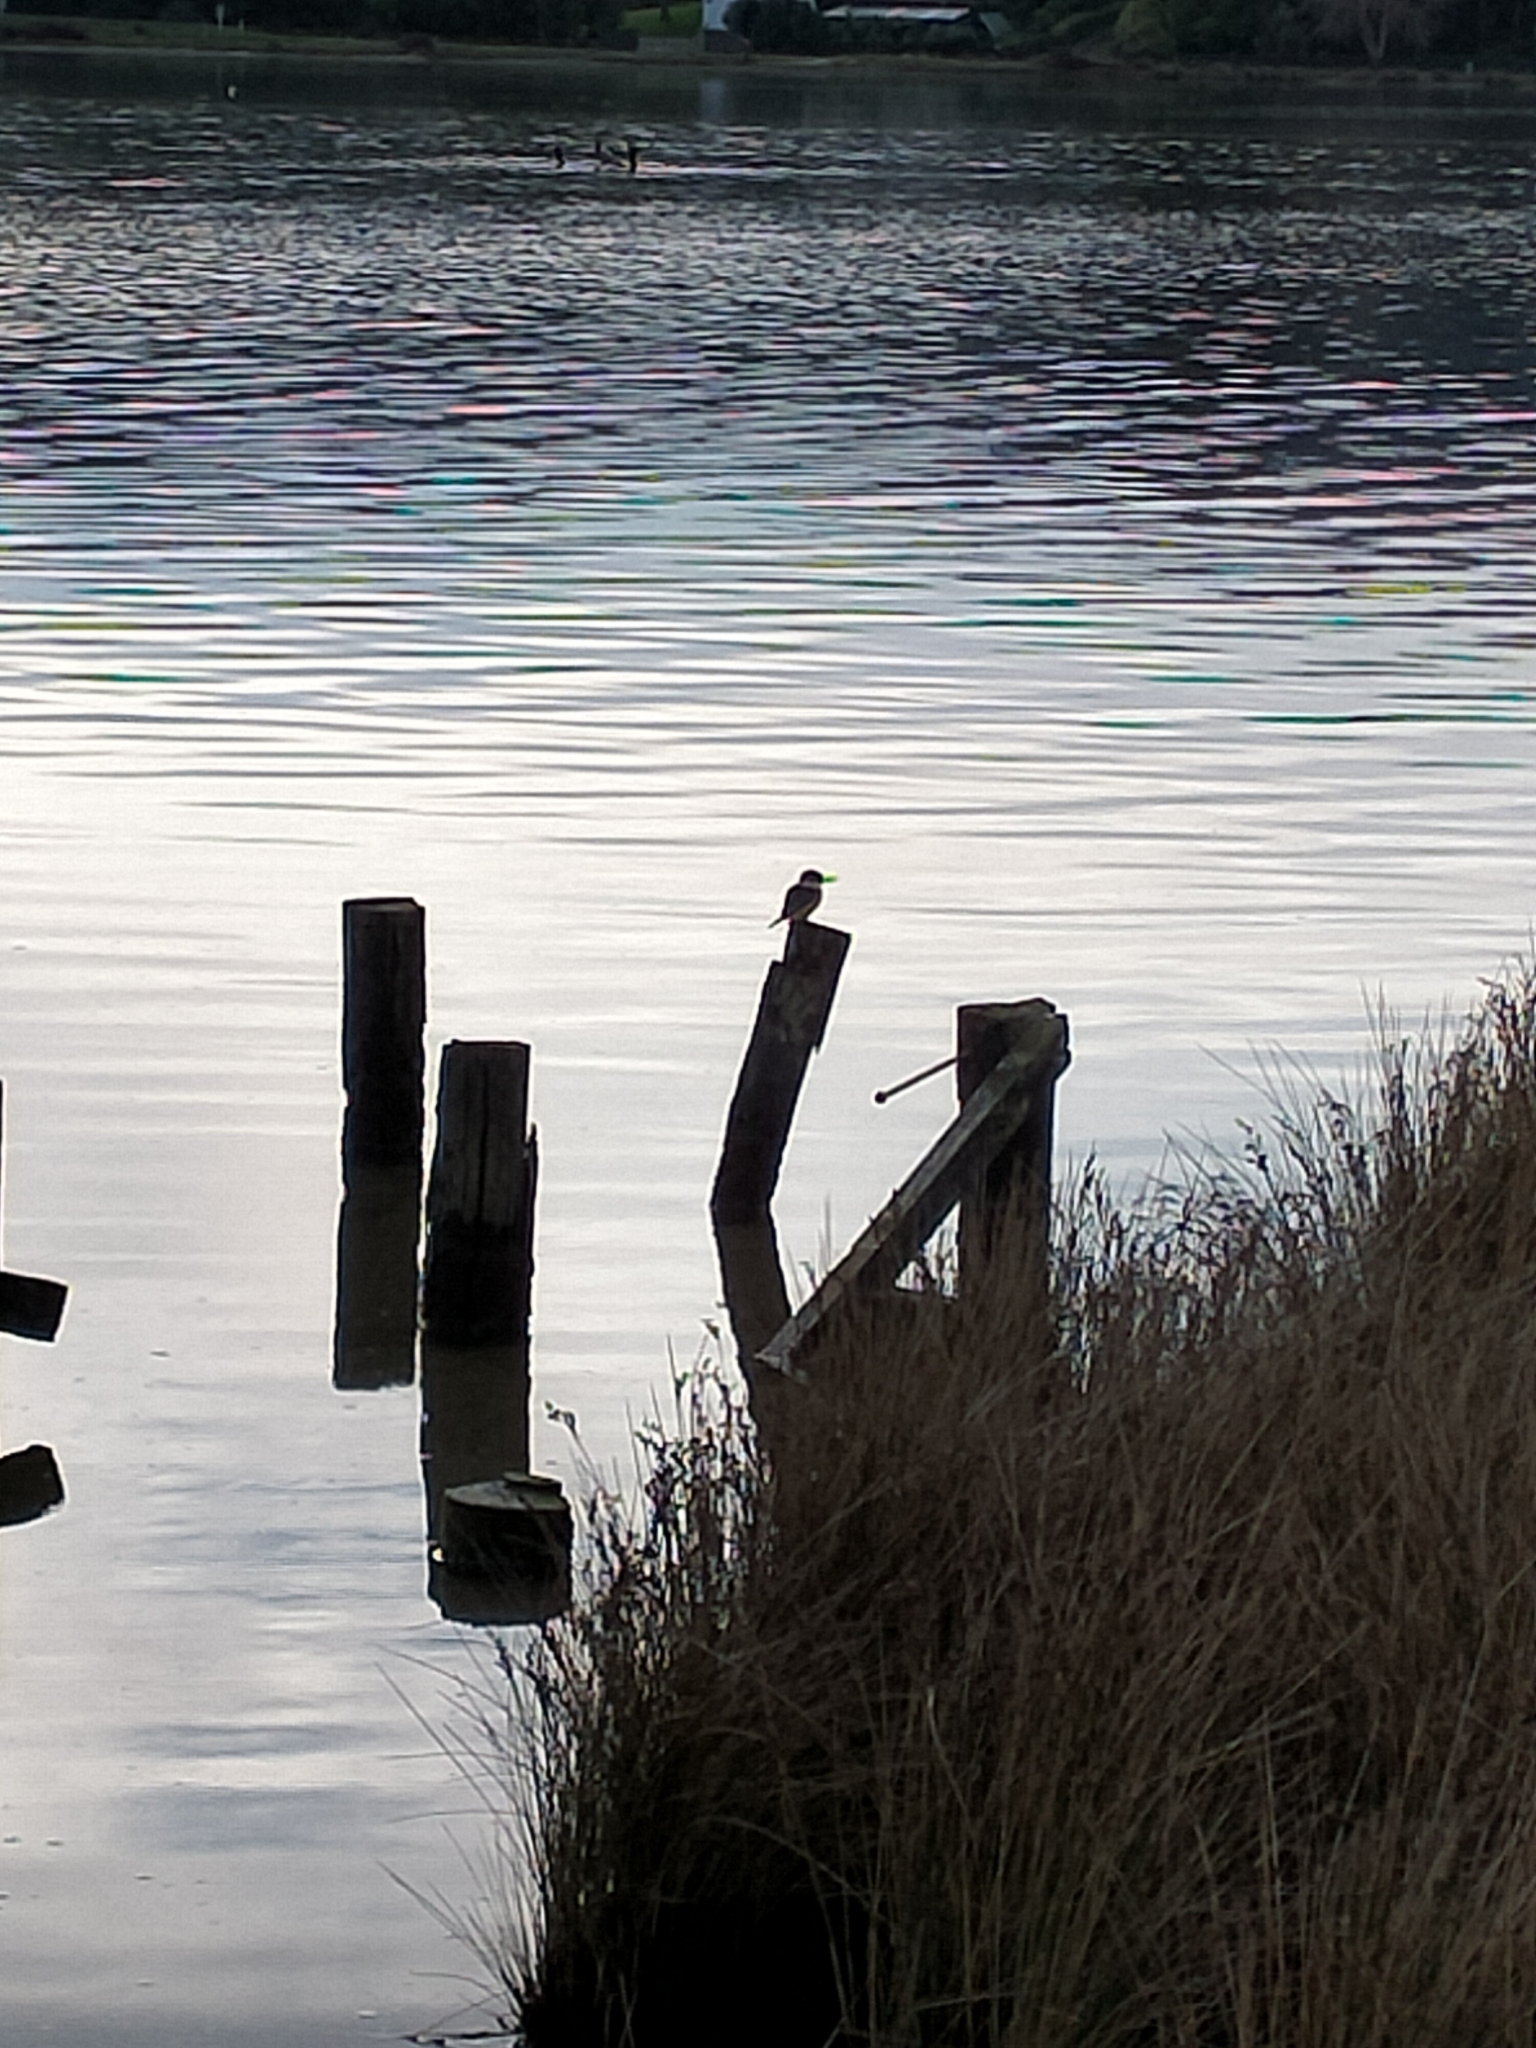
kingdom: Animalia
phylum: Chordata
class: Aves
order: Coraciiformes
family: Alcedinidae
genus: Todiramphus
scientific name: Todiramphus sanctus
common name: Sacred kingfisher
